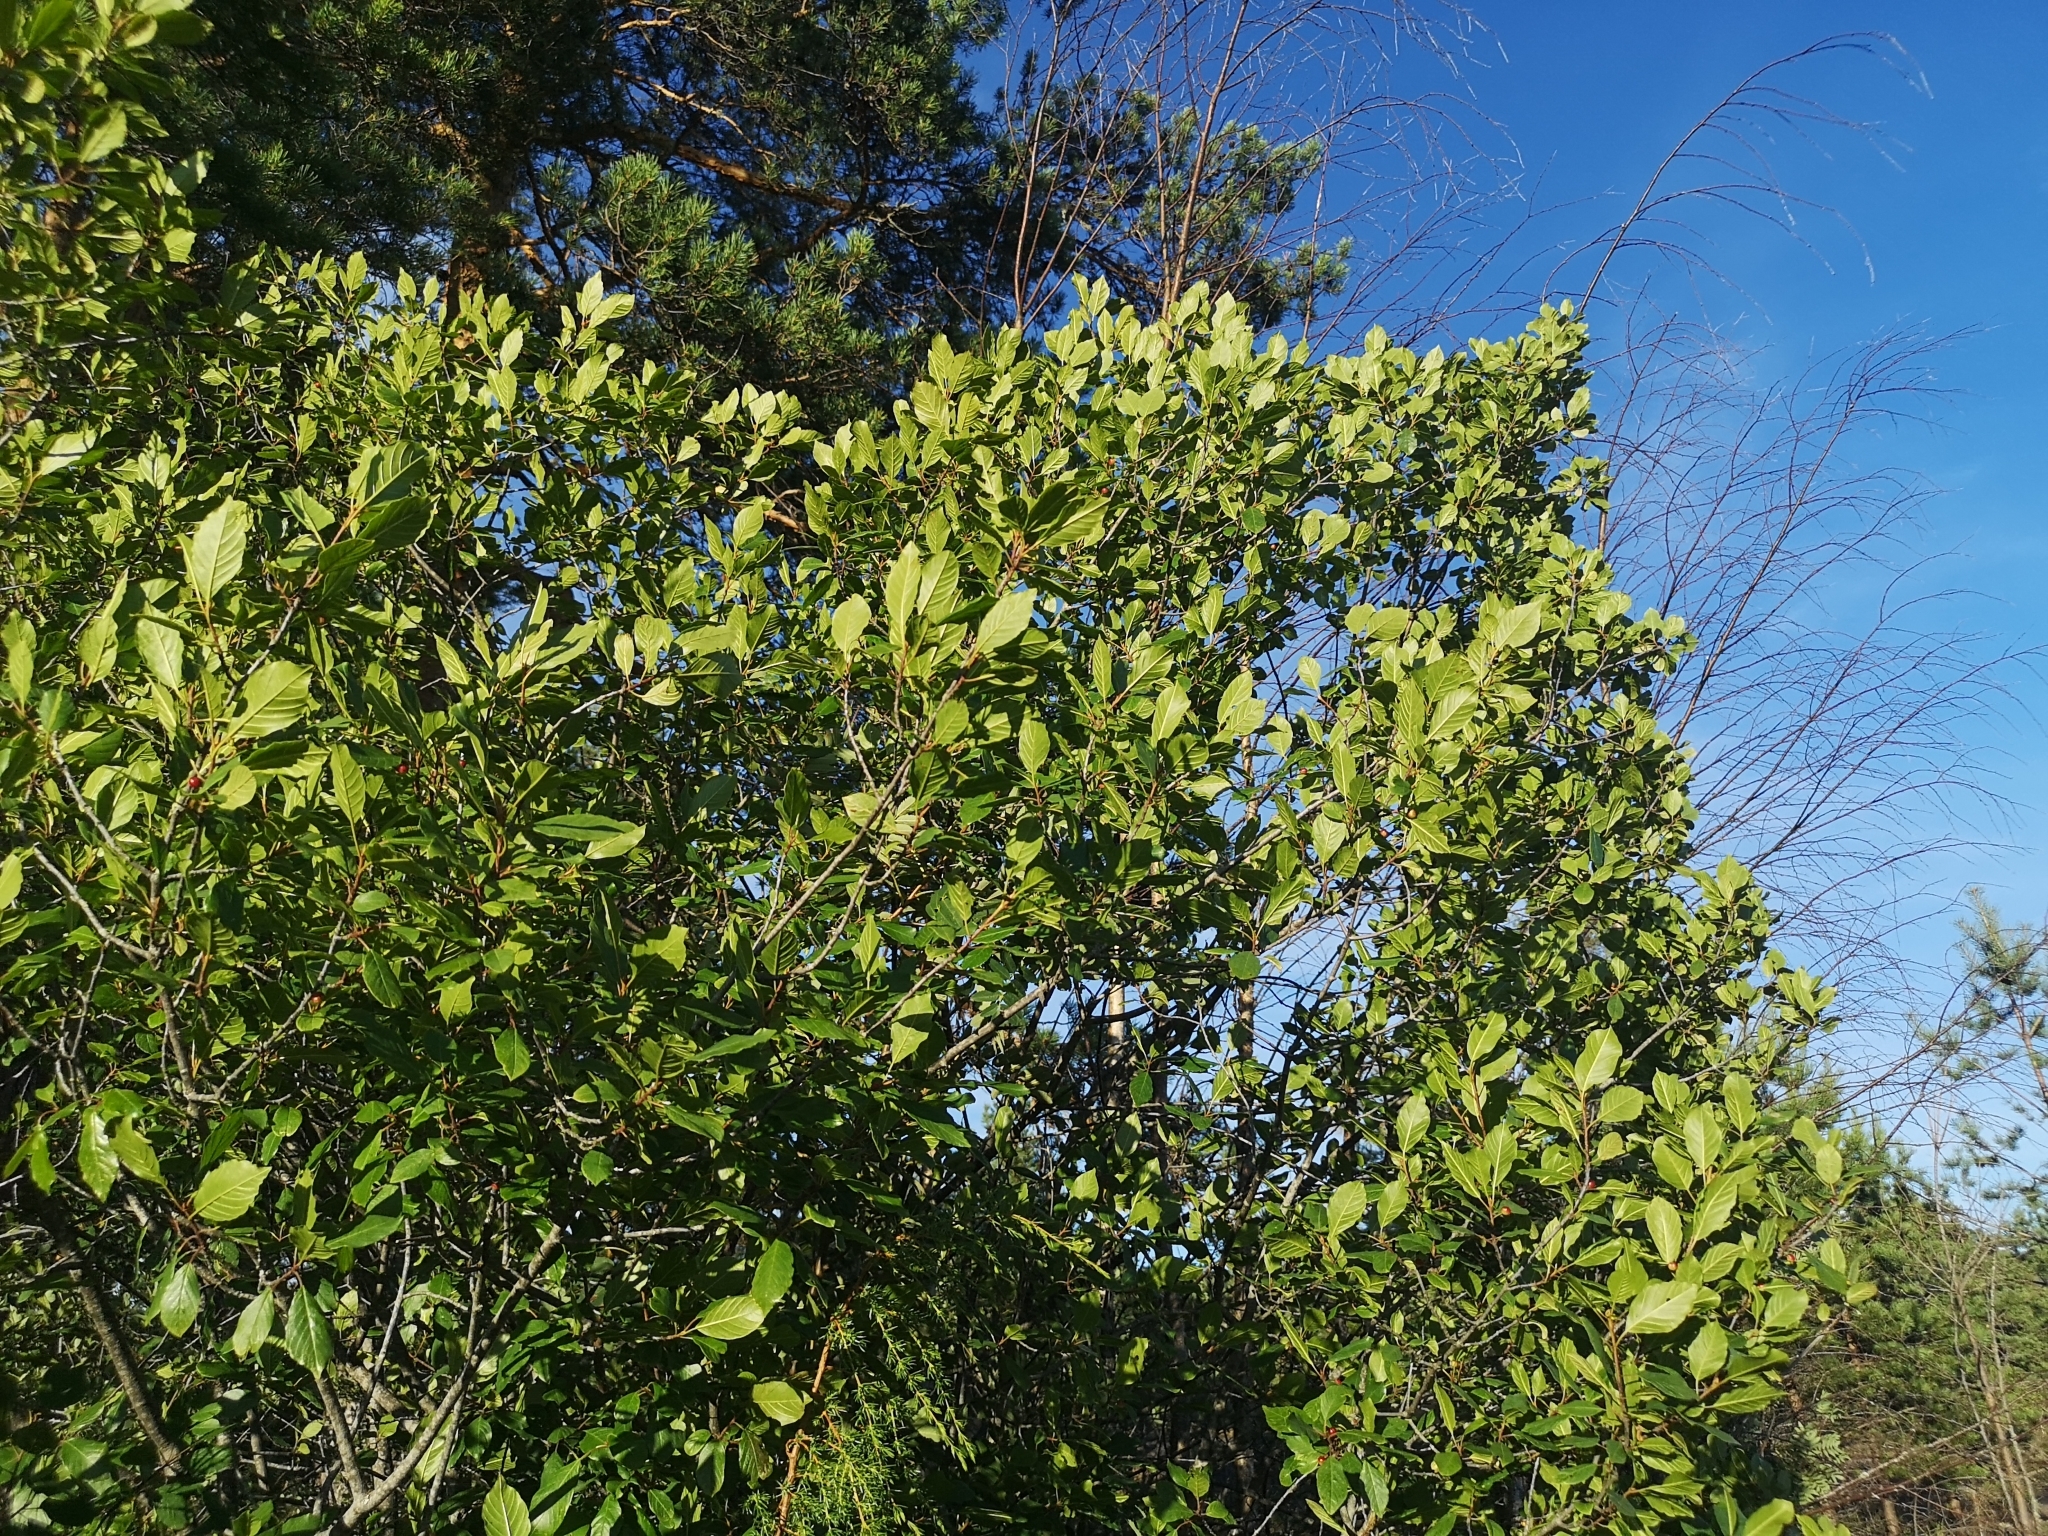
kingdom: Plantae
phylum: Tracheophyta
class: Magnoliopsida
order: Rosales
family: Rhamnaceae
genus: Frangula
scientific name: Frangula alnus
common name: Alder buckthorn
